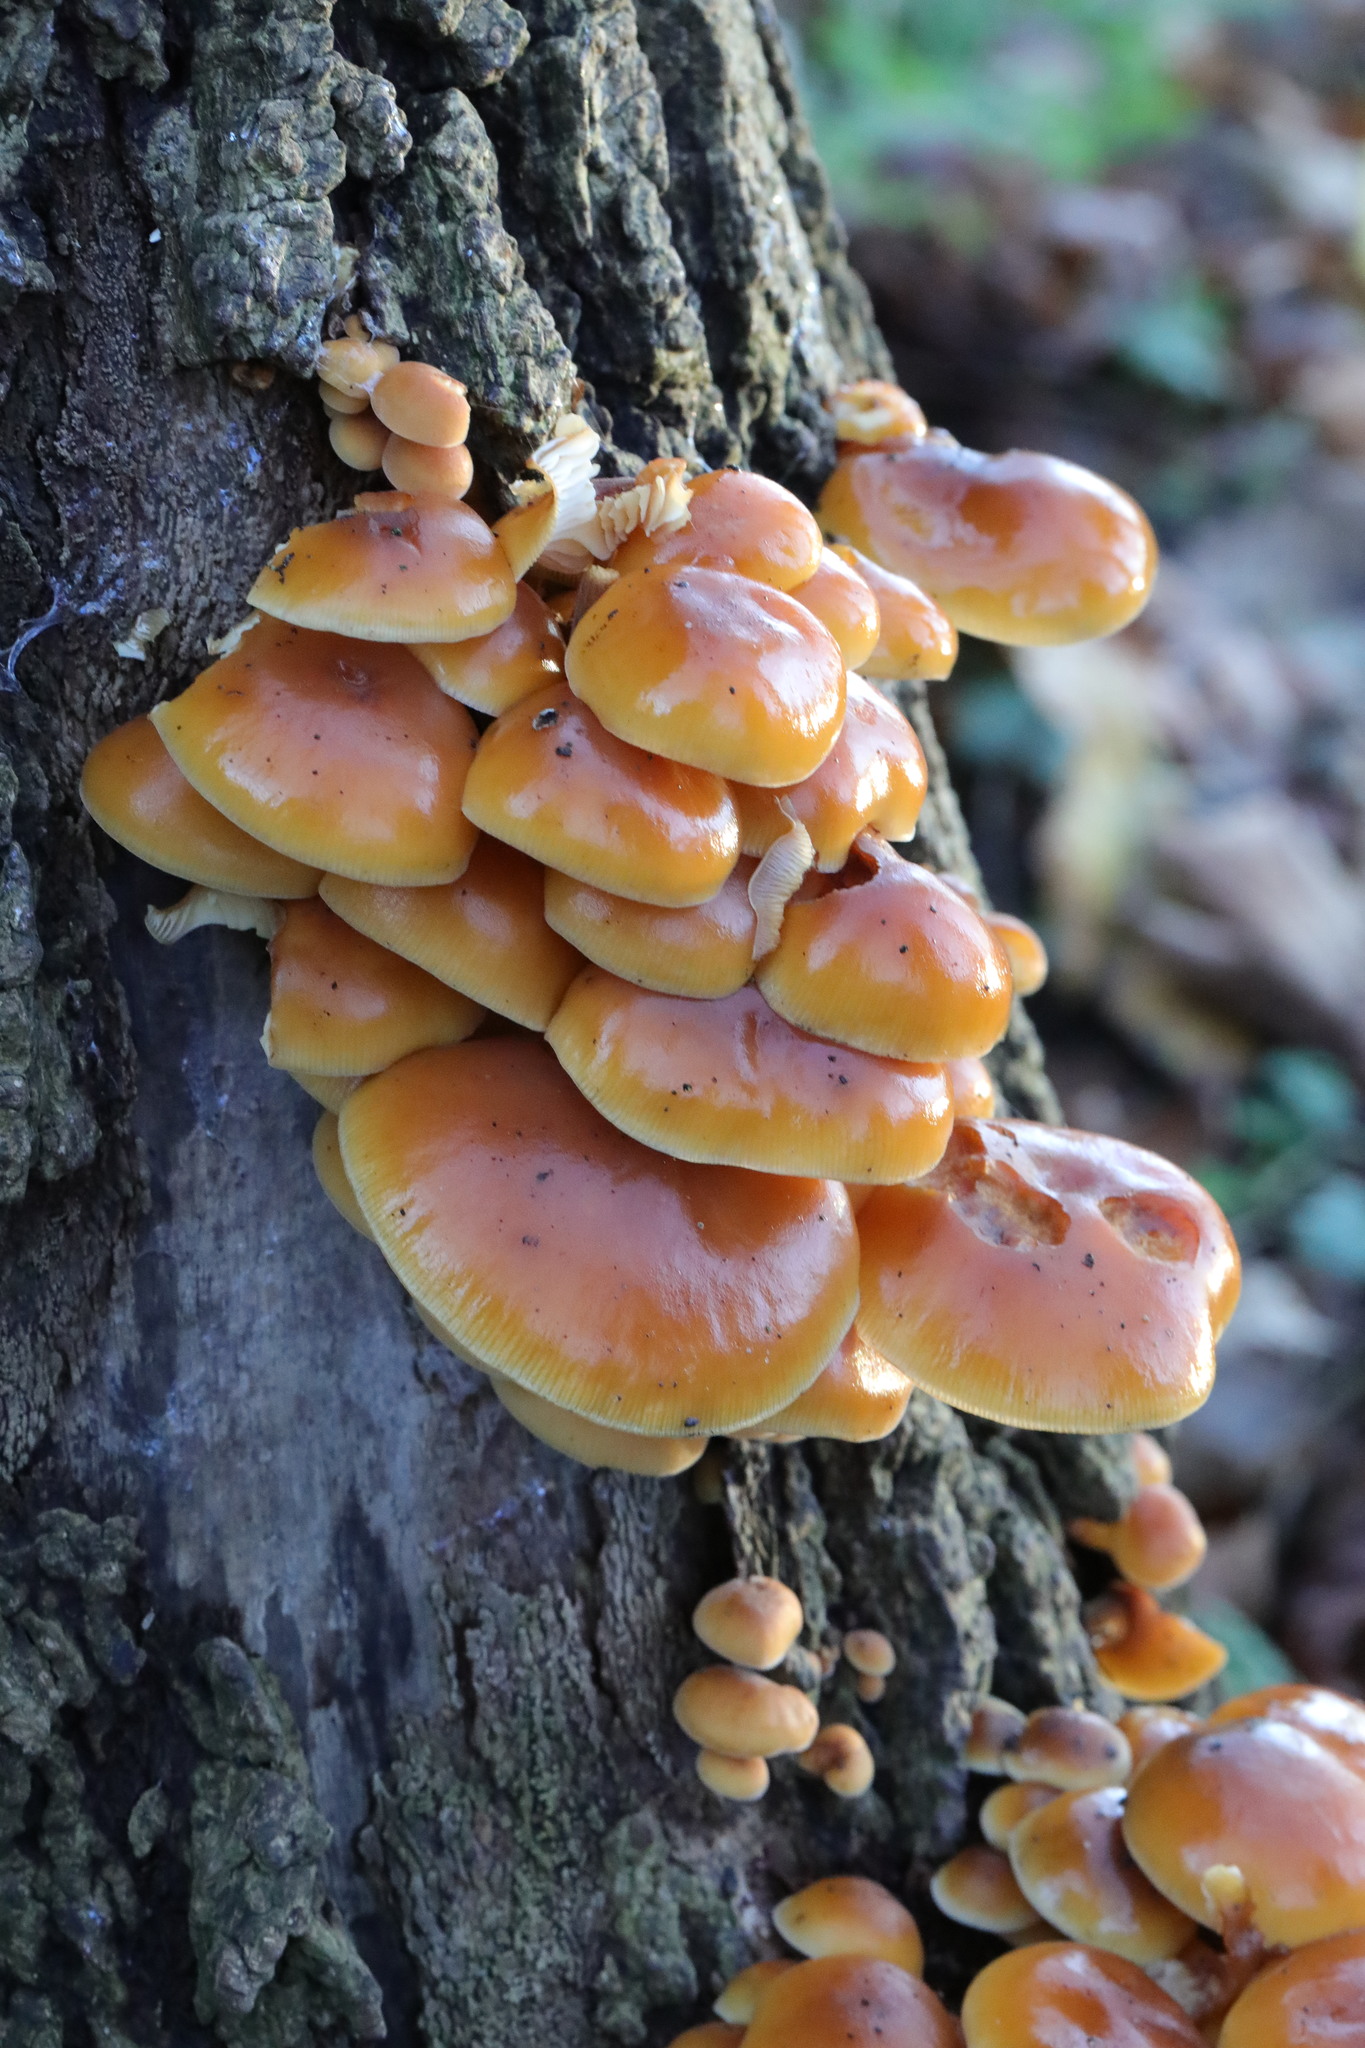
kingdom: Fungi
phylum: Basidiomycota
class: Agaricomycetes
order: Agaricales
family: Physalacriaceae
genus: Flammulina
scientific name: Flammulina
